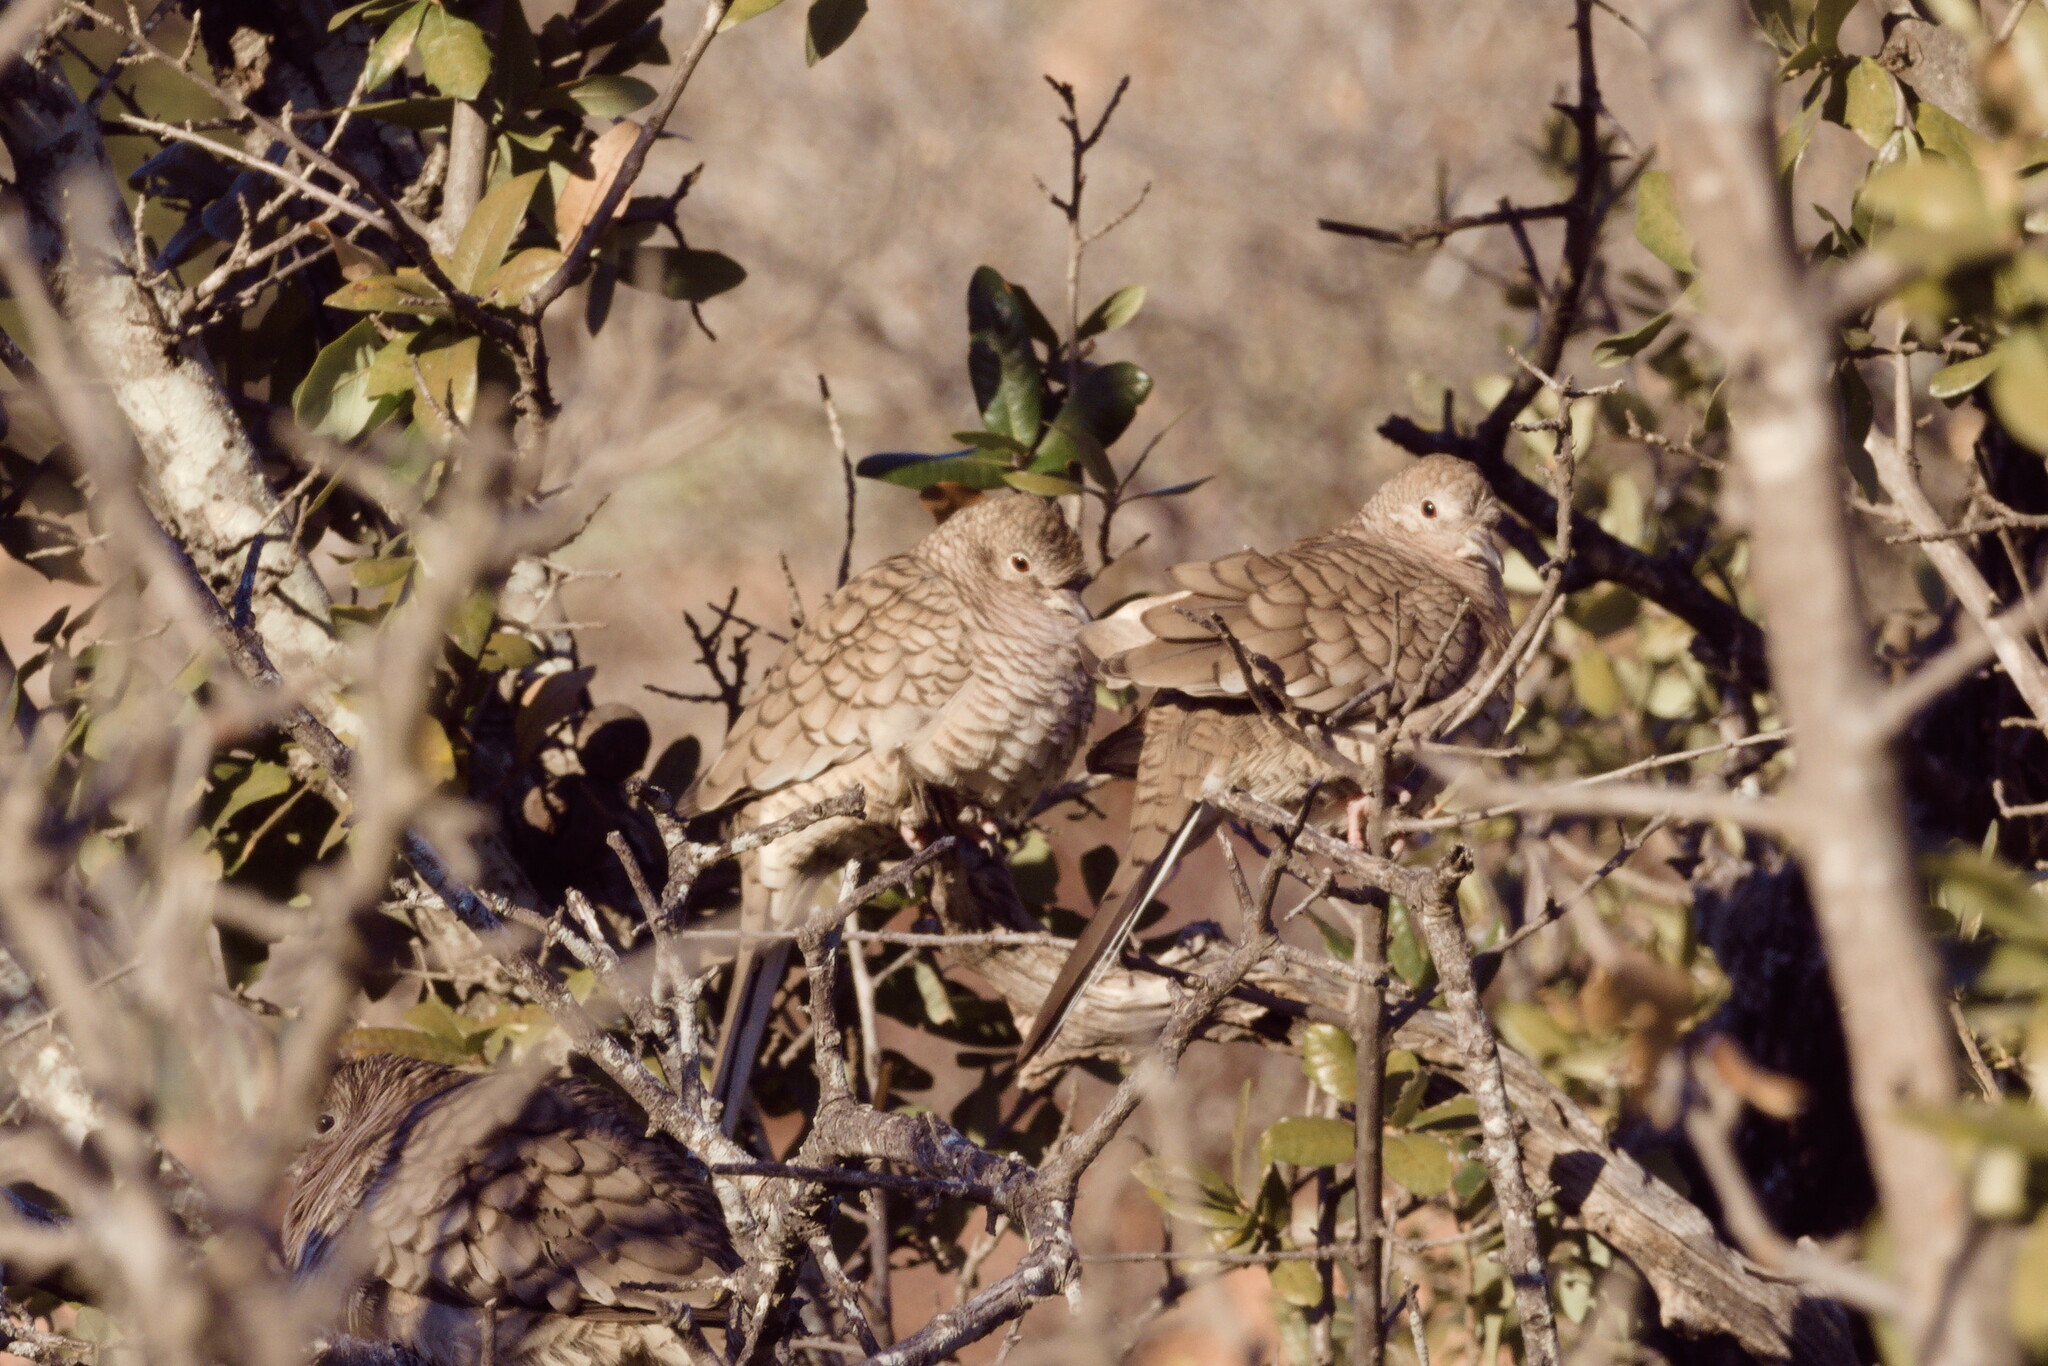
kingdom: Animalia
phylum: Chordata
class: Aves
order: Columbiformes
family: Columbidae
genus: Columbina
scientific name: Columbina inca
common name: Inca dove
